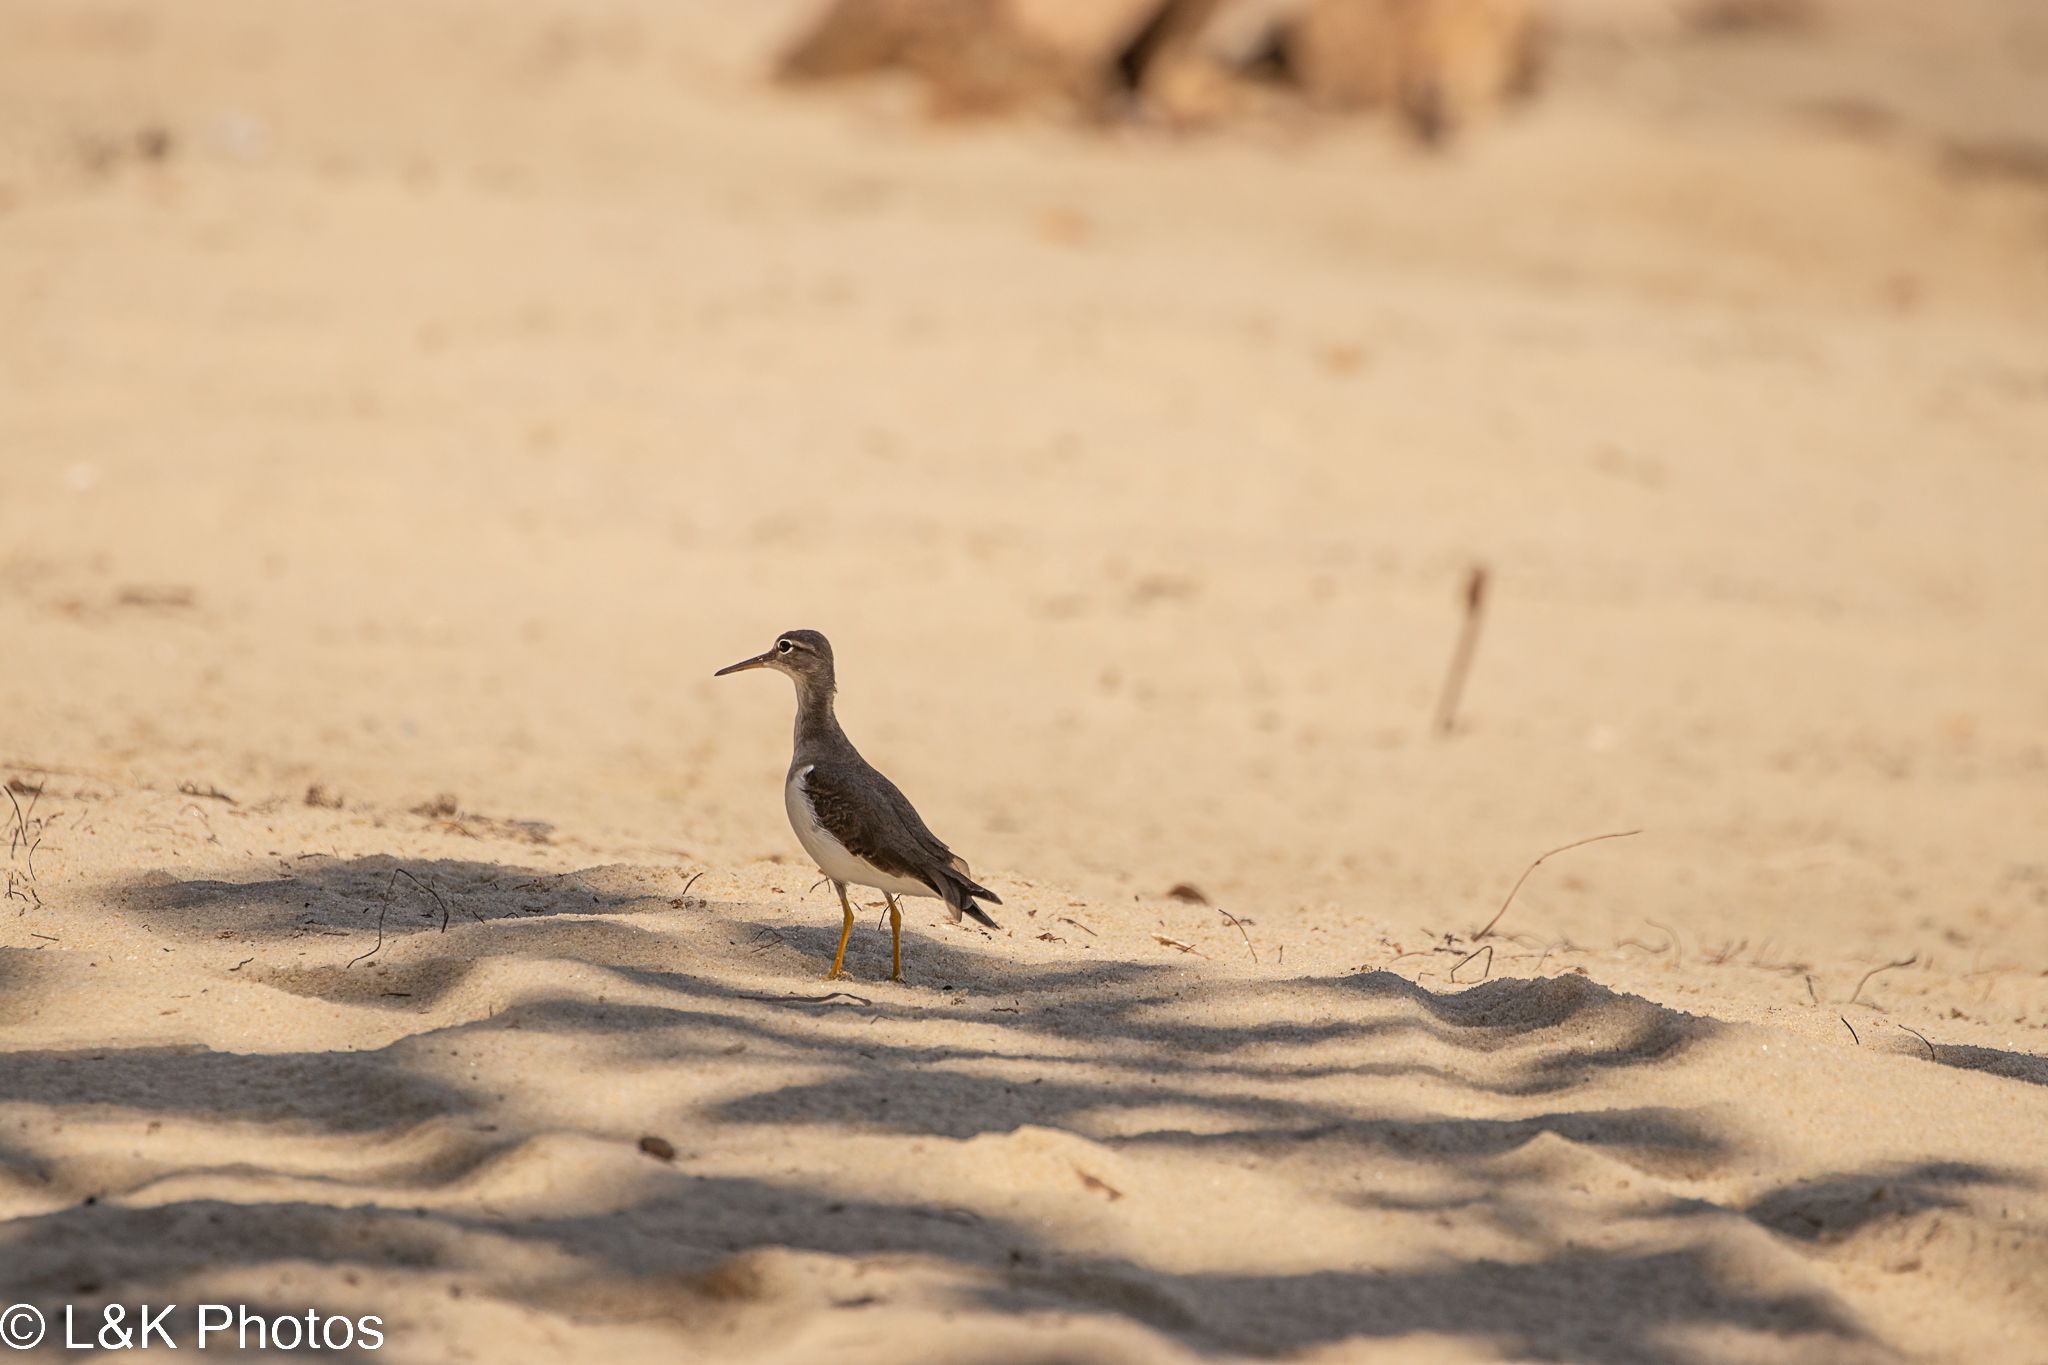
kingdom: Animalia
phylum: Chordata
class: Aves
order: Charadriiformes
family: Scolopacidae
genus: Actitis
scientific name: Actitis macularius
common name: Spotted sandpiper
